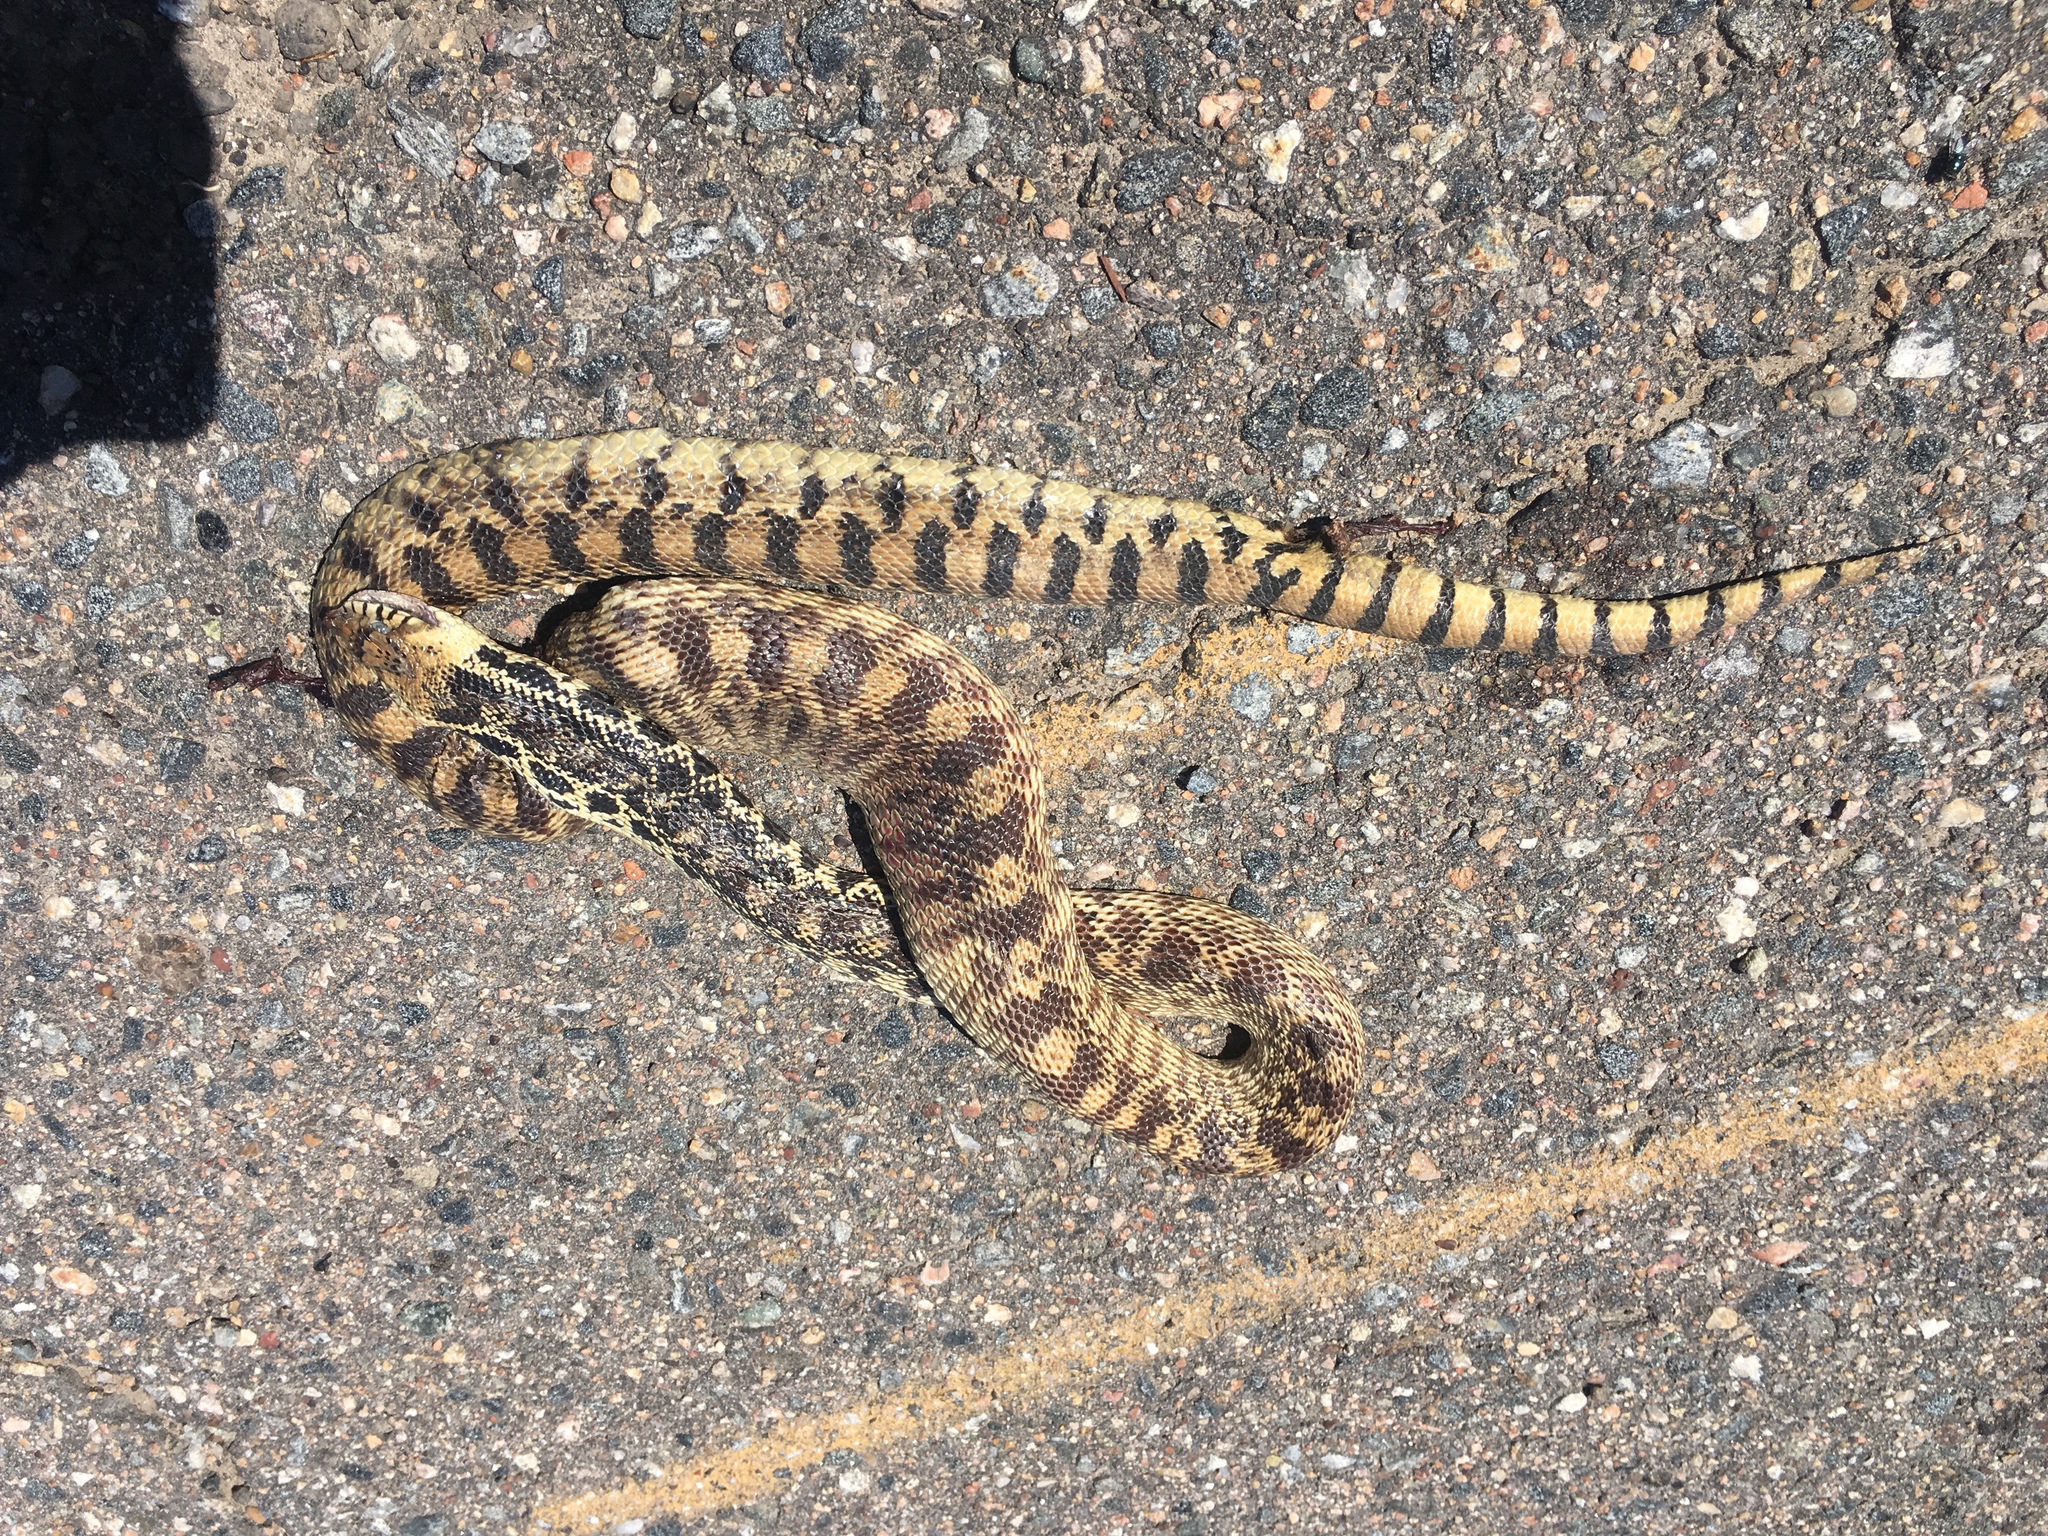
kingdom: Animalia
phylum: Chordata
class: Squamata
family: Colubridae
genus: Pituophis
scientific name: Pituophis catenifer
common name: Gopher snake
